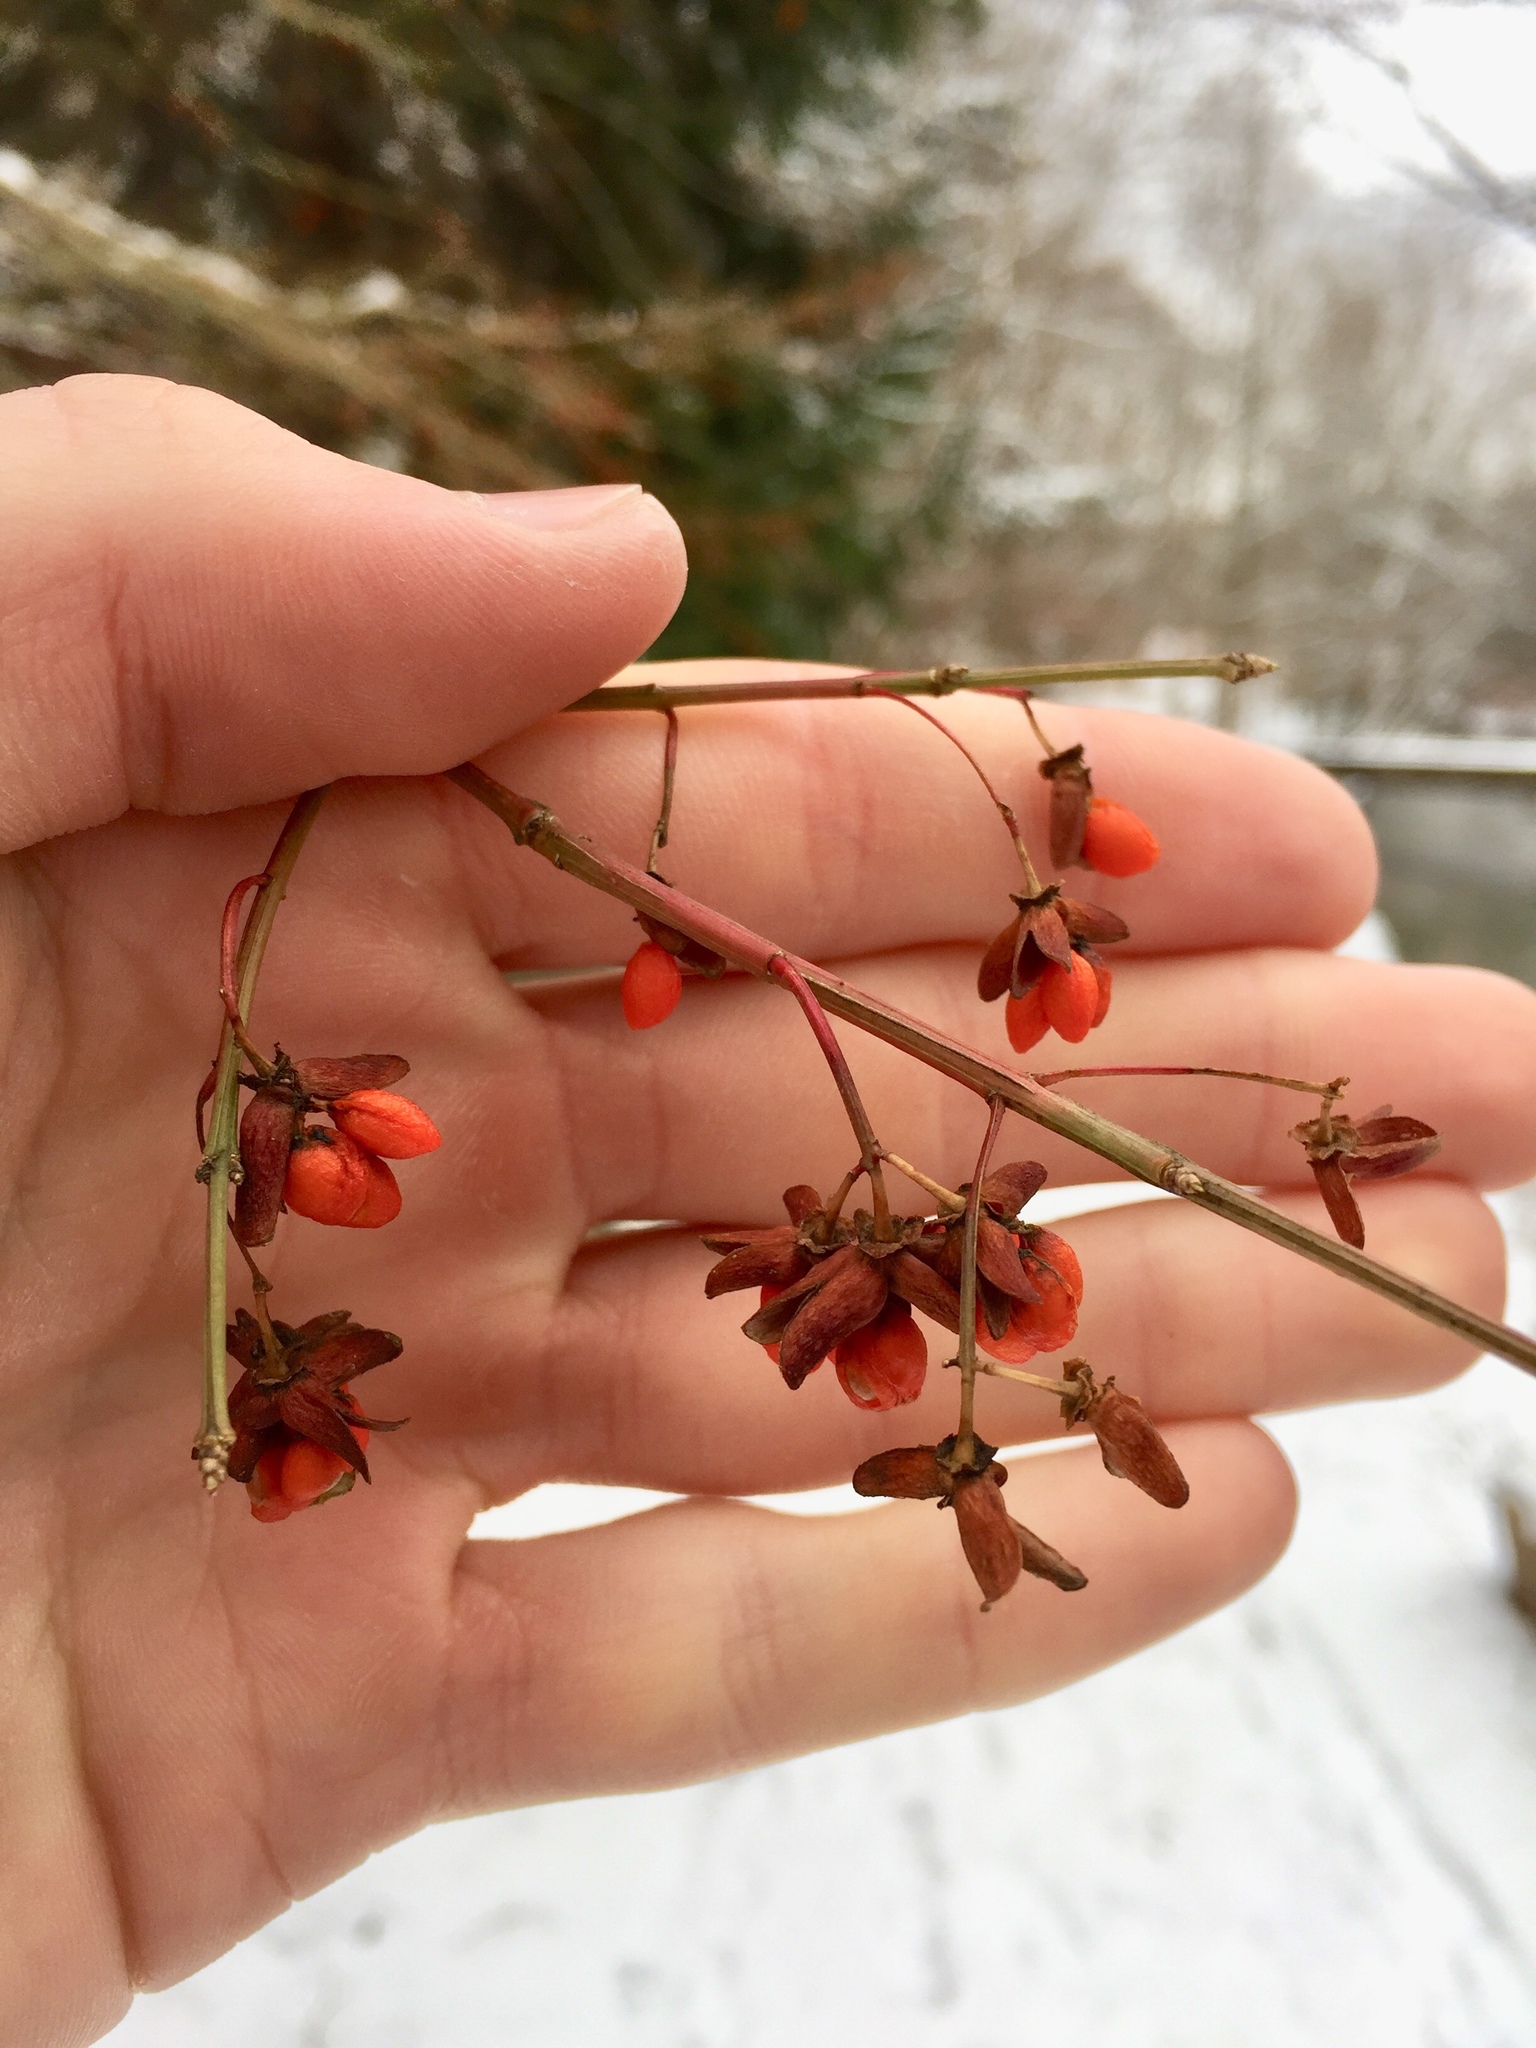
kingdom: Plantae
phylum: Tracheophyta
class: Magnoliopsida
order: Celastrales
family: Celastraceae
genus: Euonymus
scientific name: Euonymus alatus
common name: Winged euonymus
